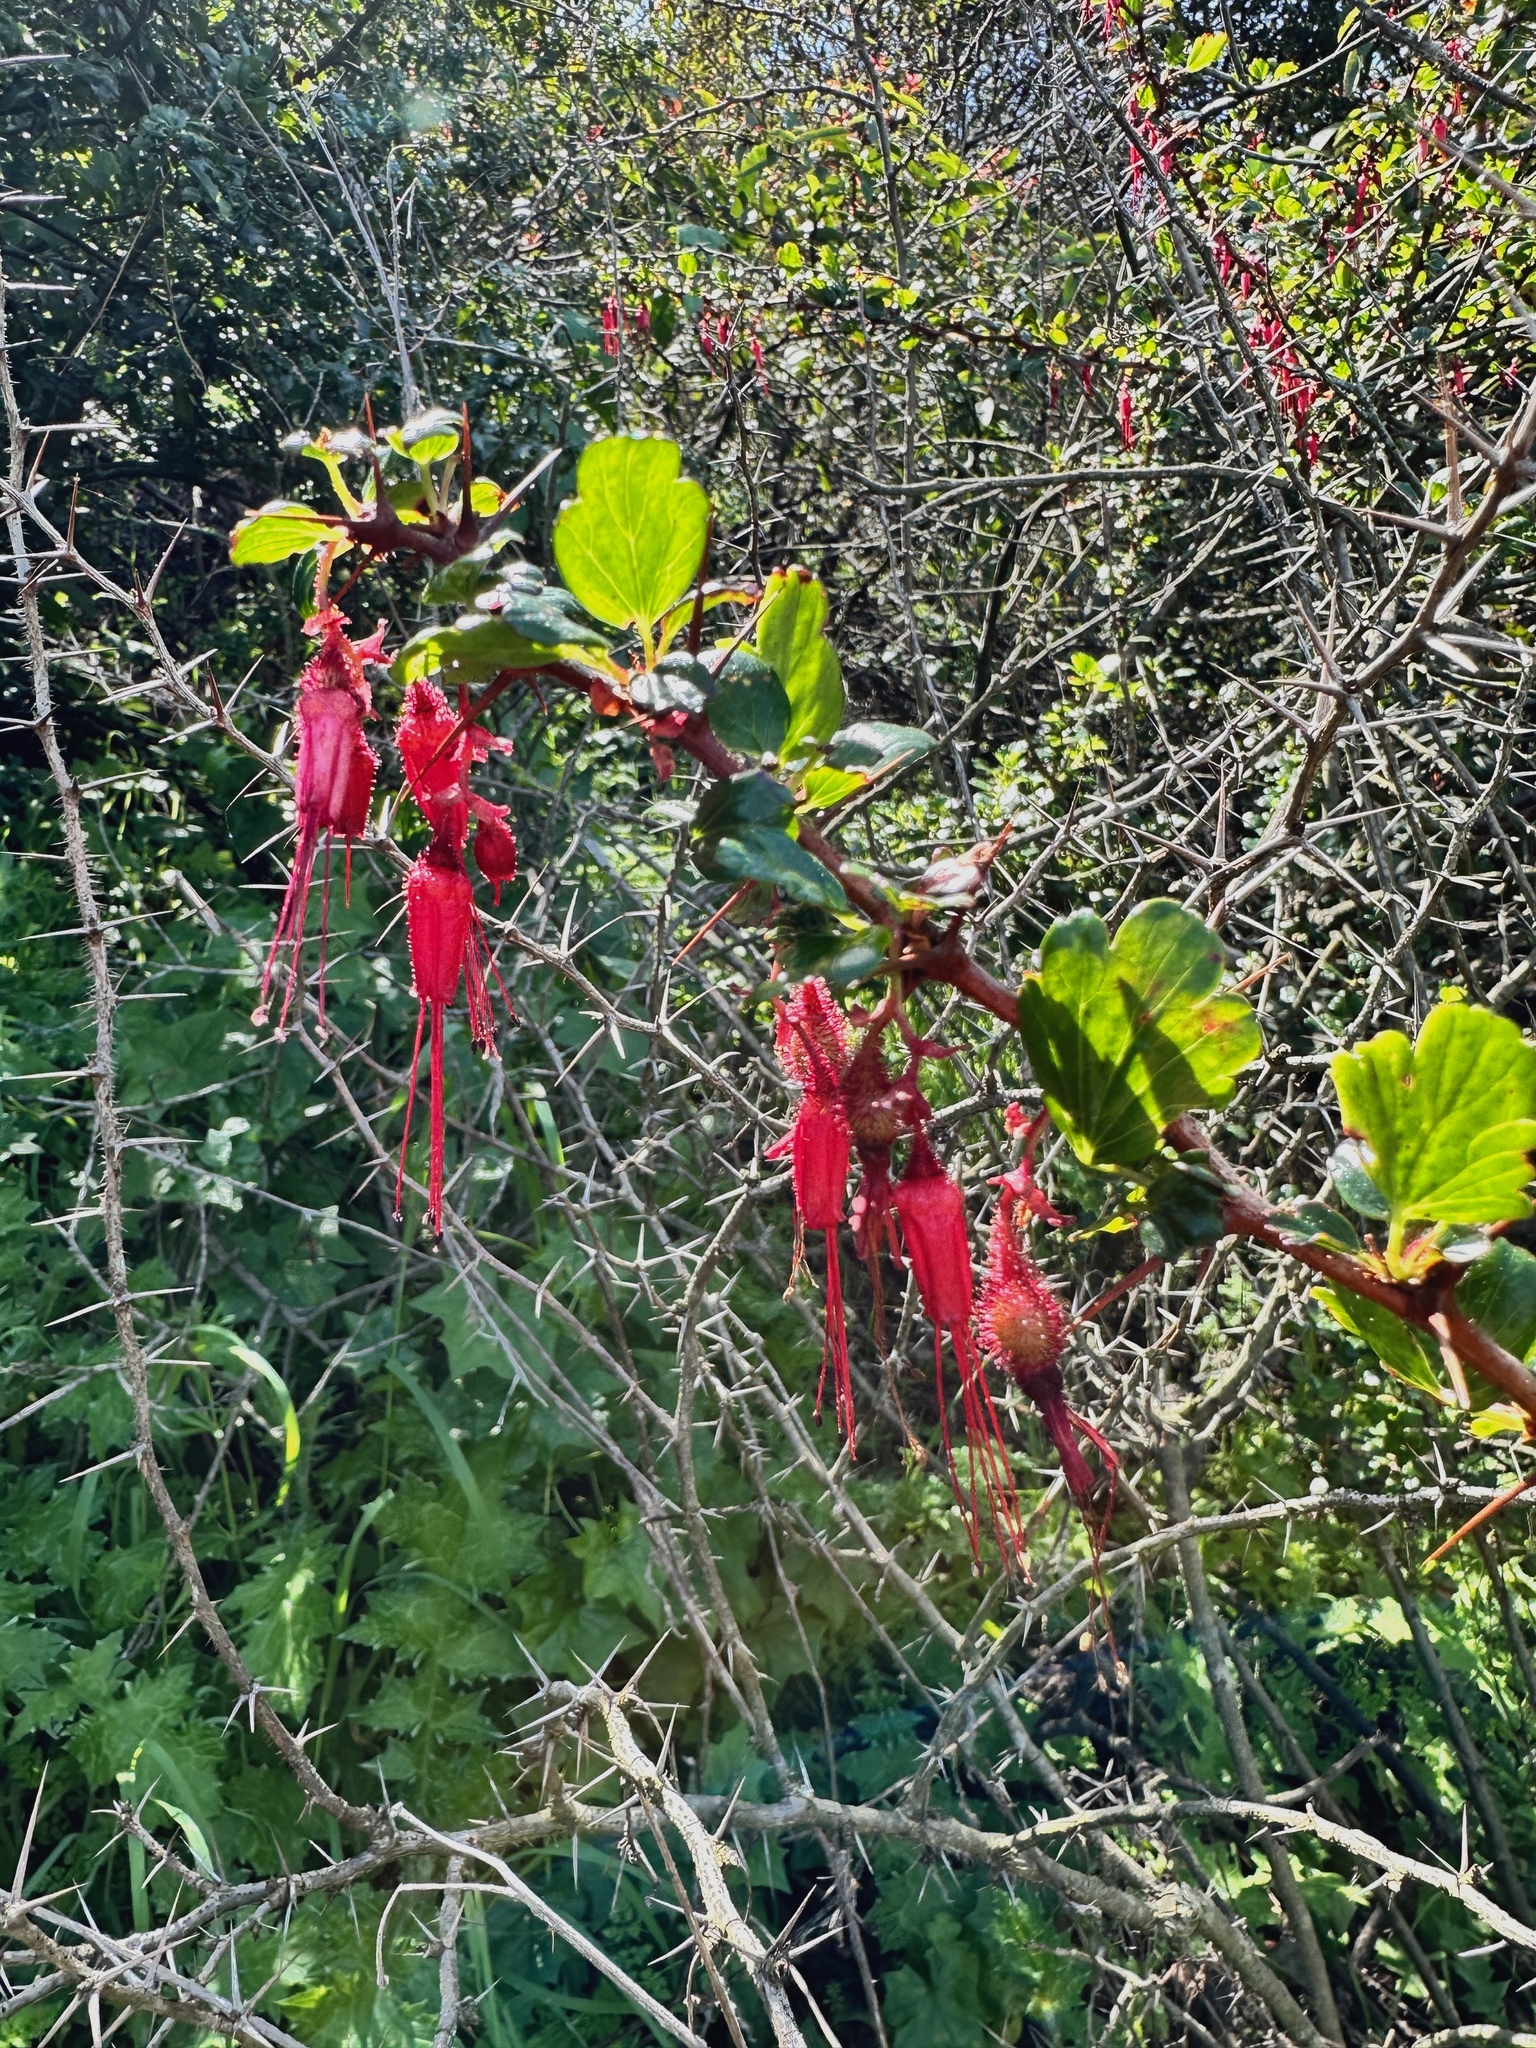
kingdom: Plantae
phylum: Tracheophyta
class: Magnoliopsida
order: Saxifragales
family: Grossulariaceae
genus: Ribes
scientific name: Ribes speciosum
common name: Fuchsia-flower gooseberry
